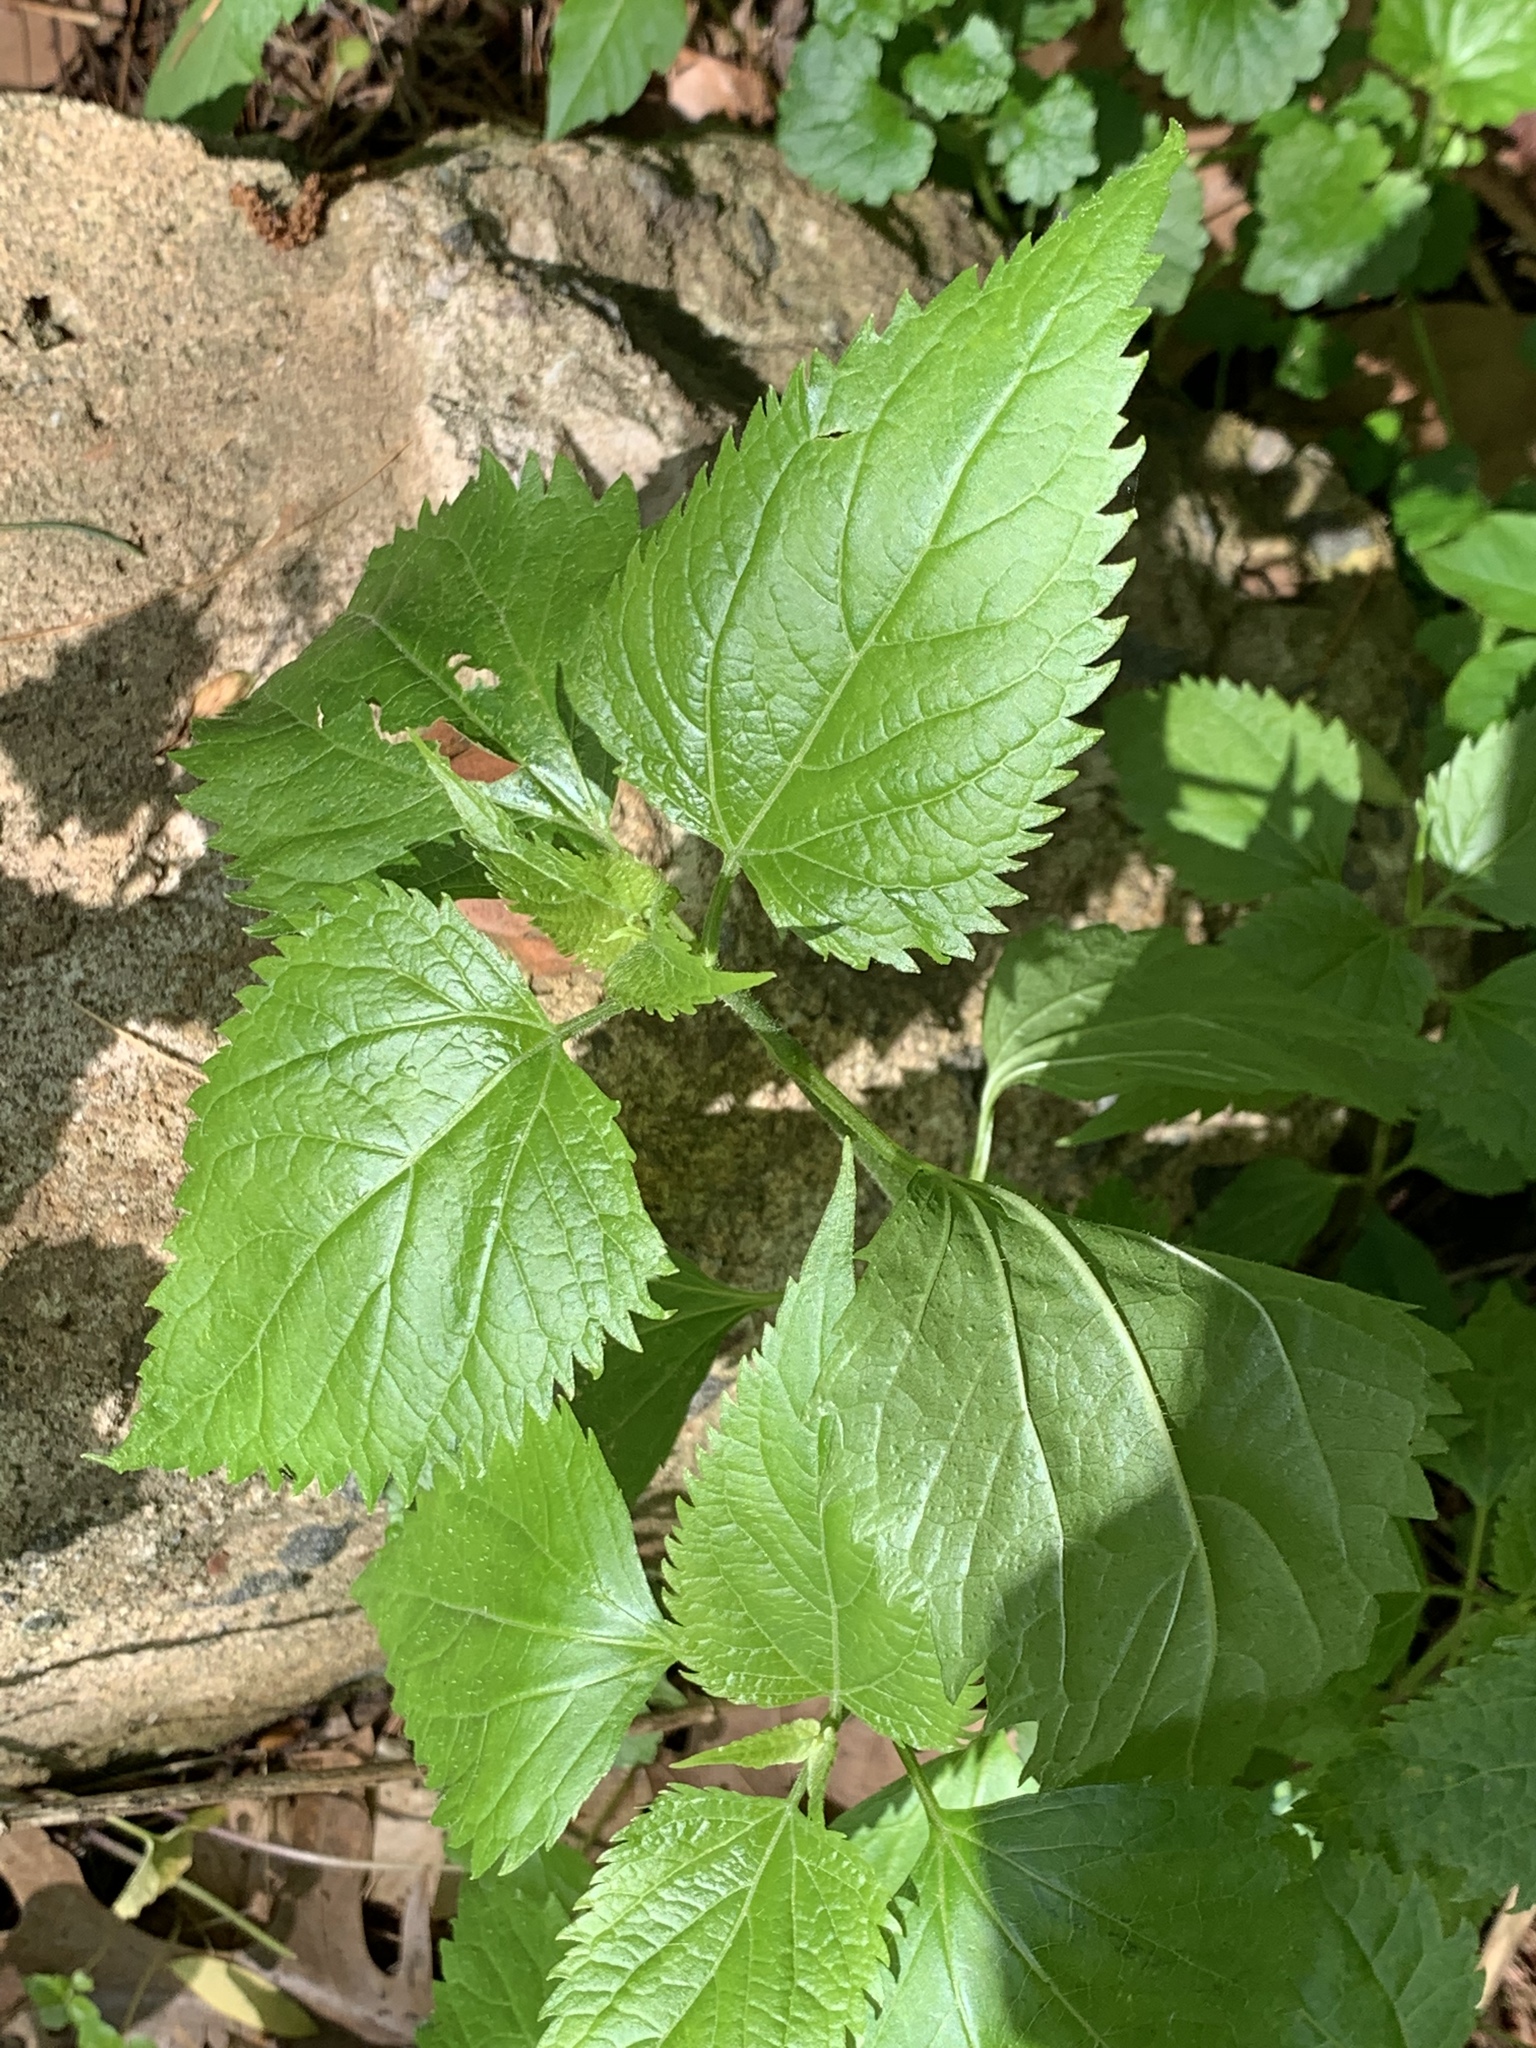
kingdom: Plantae
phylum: Tracheophyta
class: Magnoliopsida
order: Asterales
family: Asteraceae
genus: Ageratina
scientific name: Ageratina altissima
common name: White snakeroot
